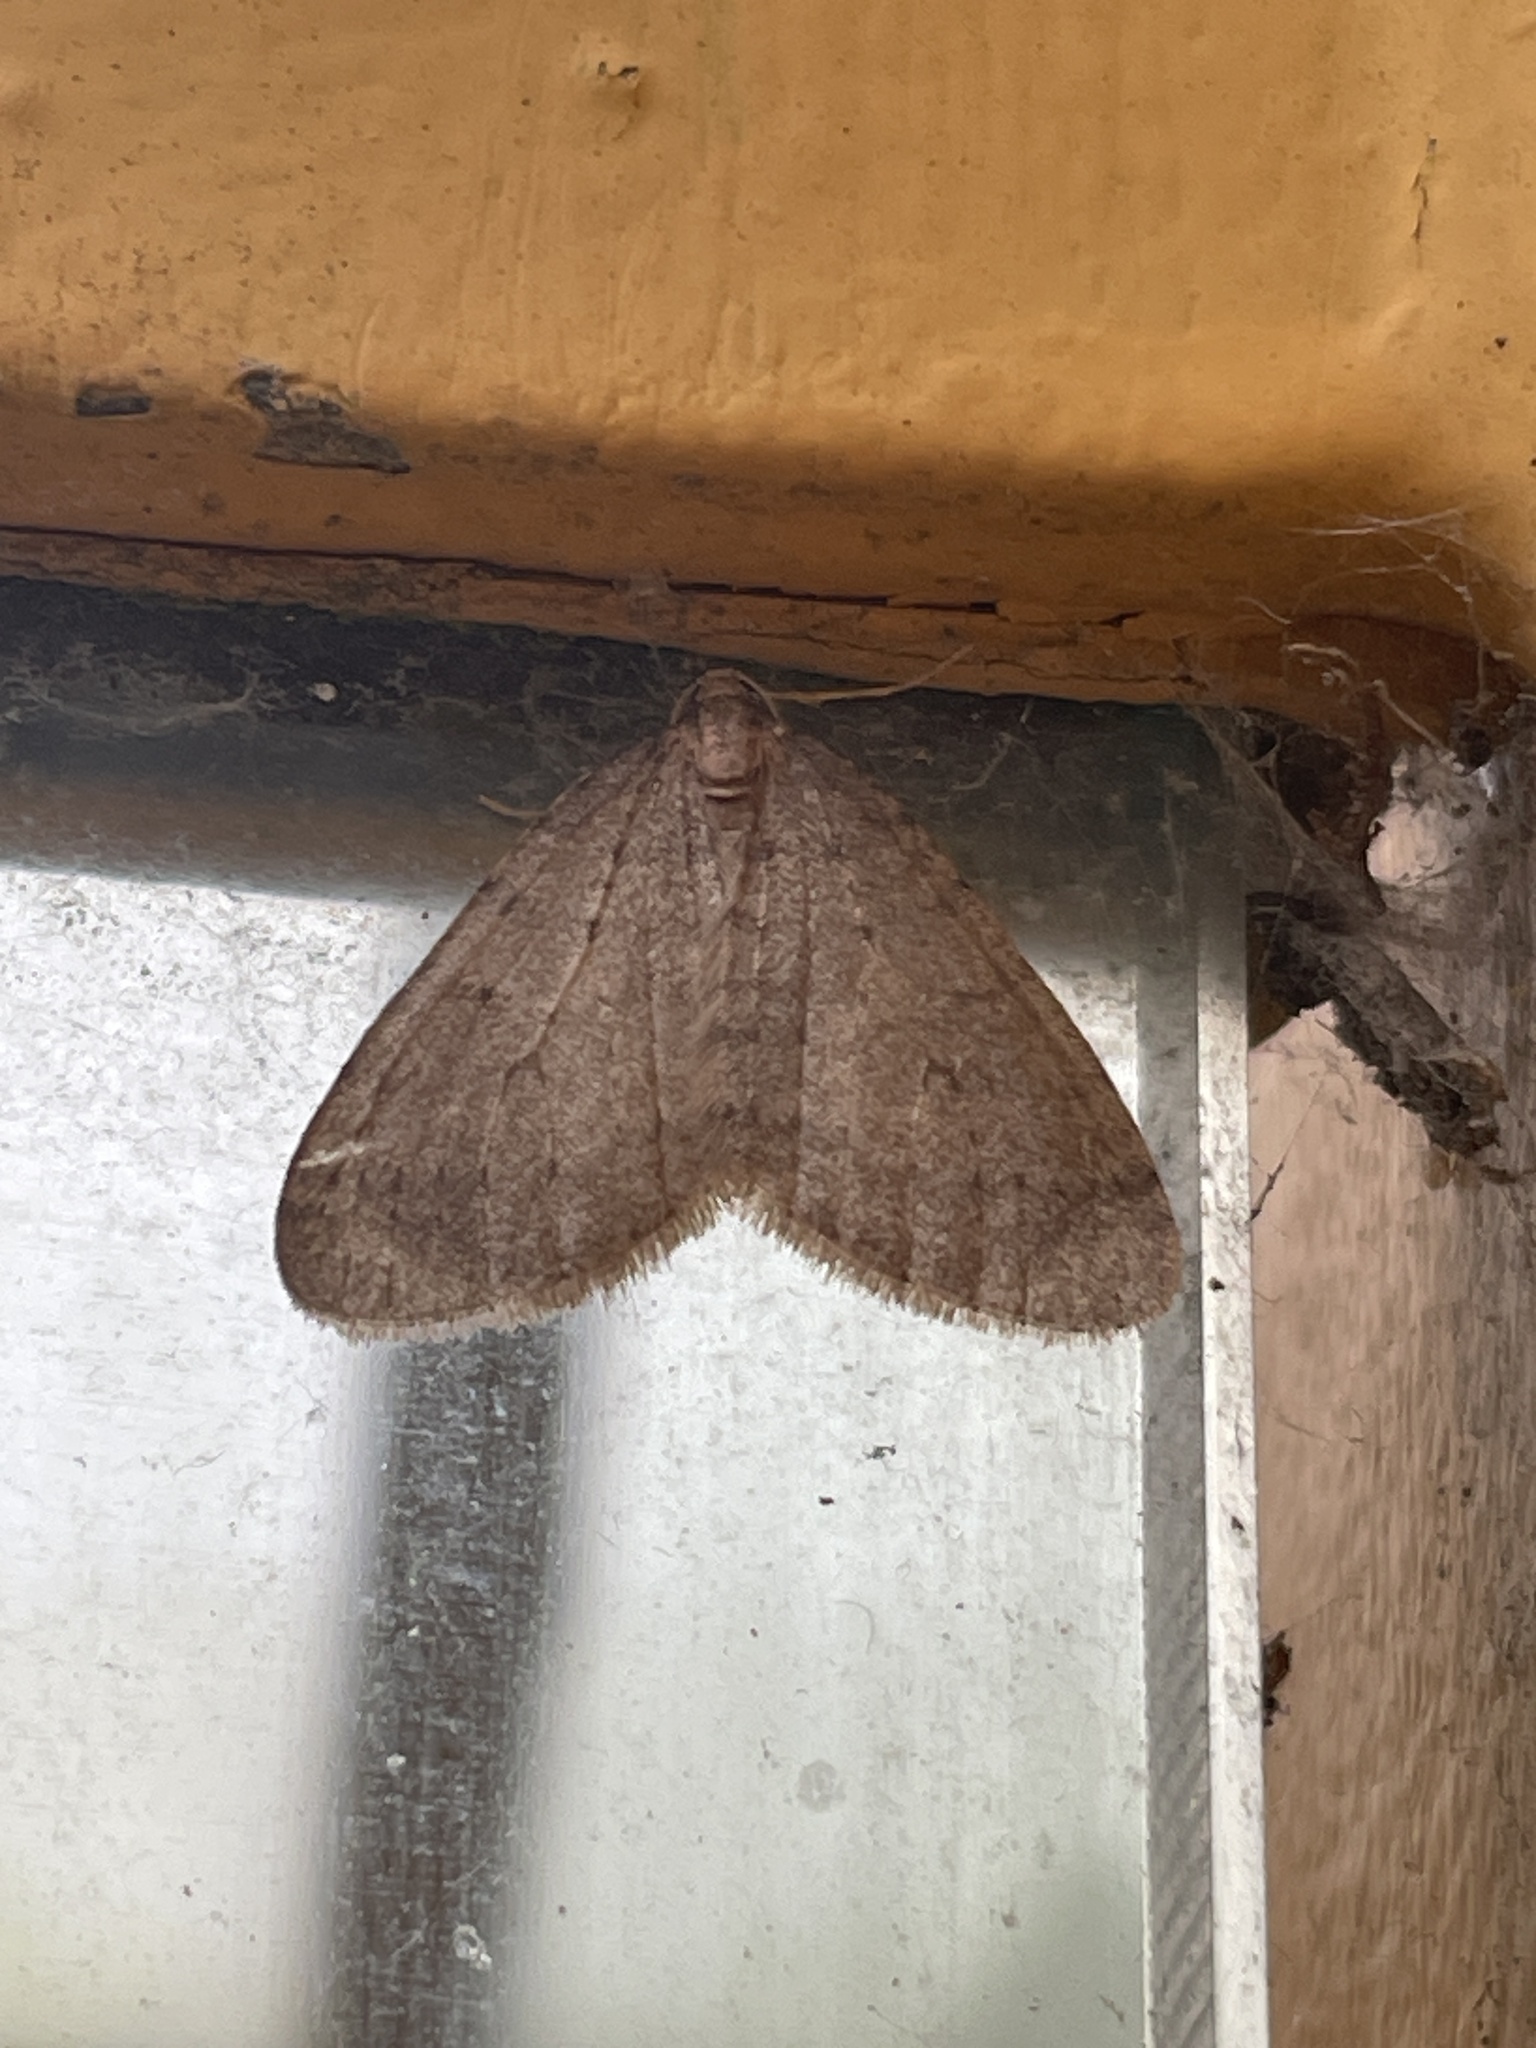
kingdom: Animalia
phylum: Arthropoda
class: Insecta
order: Lepidoptera
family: Geometridae
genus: Operophtera
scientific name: Operophtera brumata
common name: Winter moth
